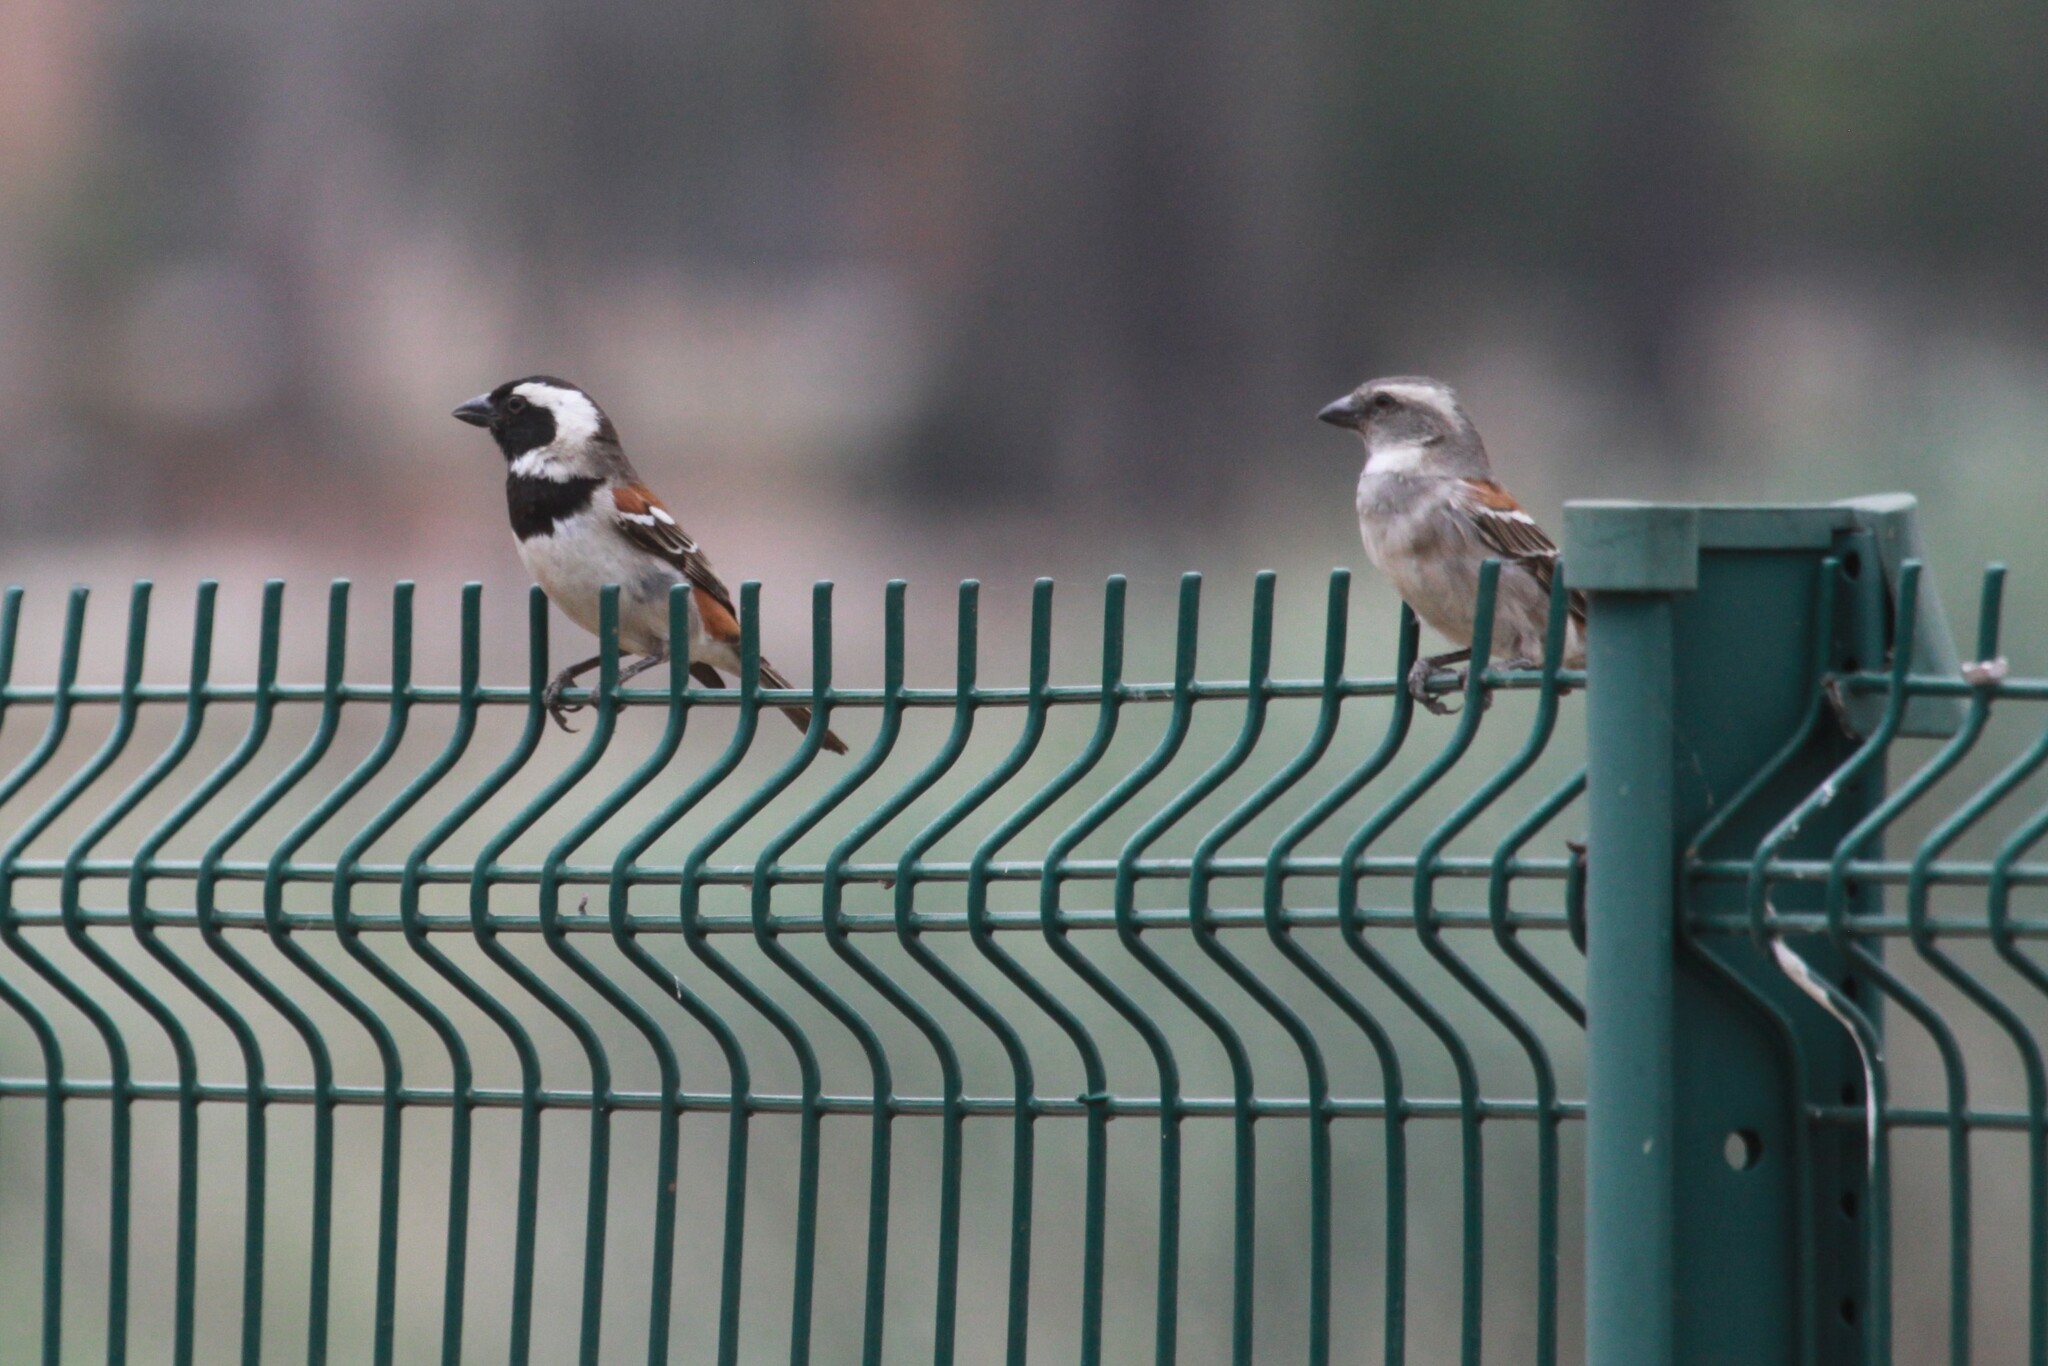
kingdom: Animalia
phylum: Chordata
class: Aves
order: Passeriformes
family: Passeridae
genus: Passer
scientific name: Passer melanurus
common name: Cape sparrow
